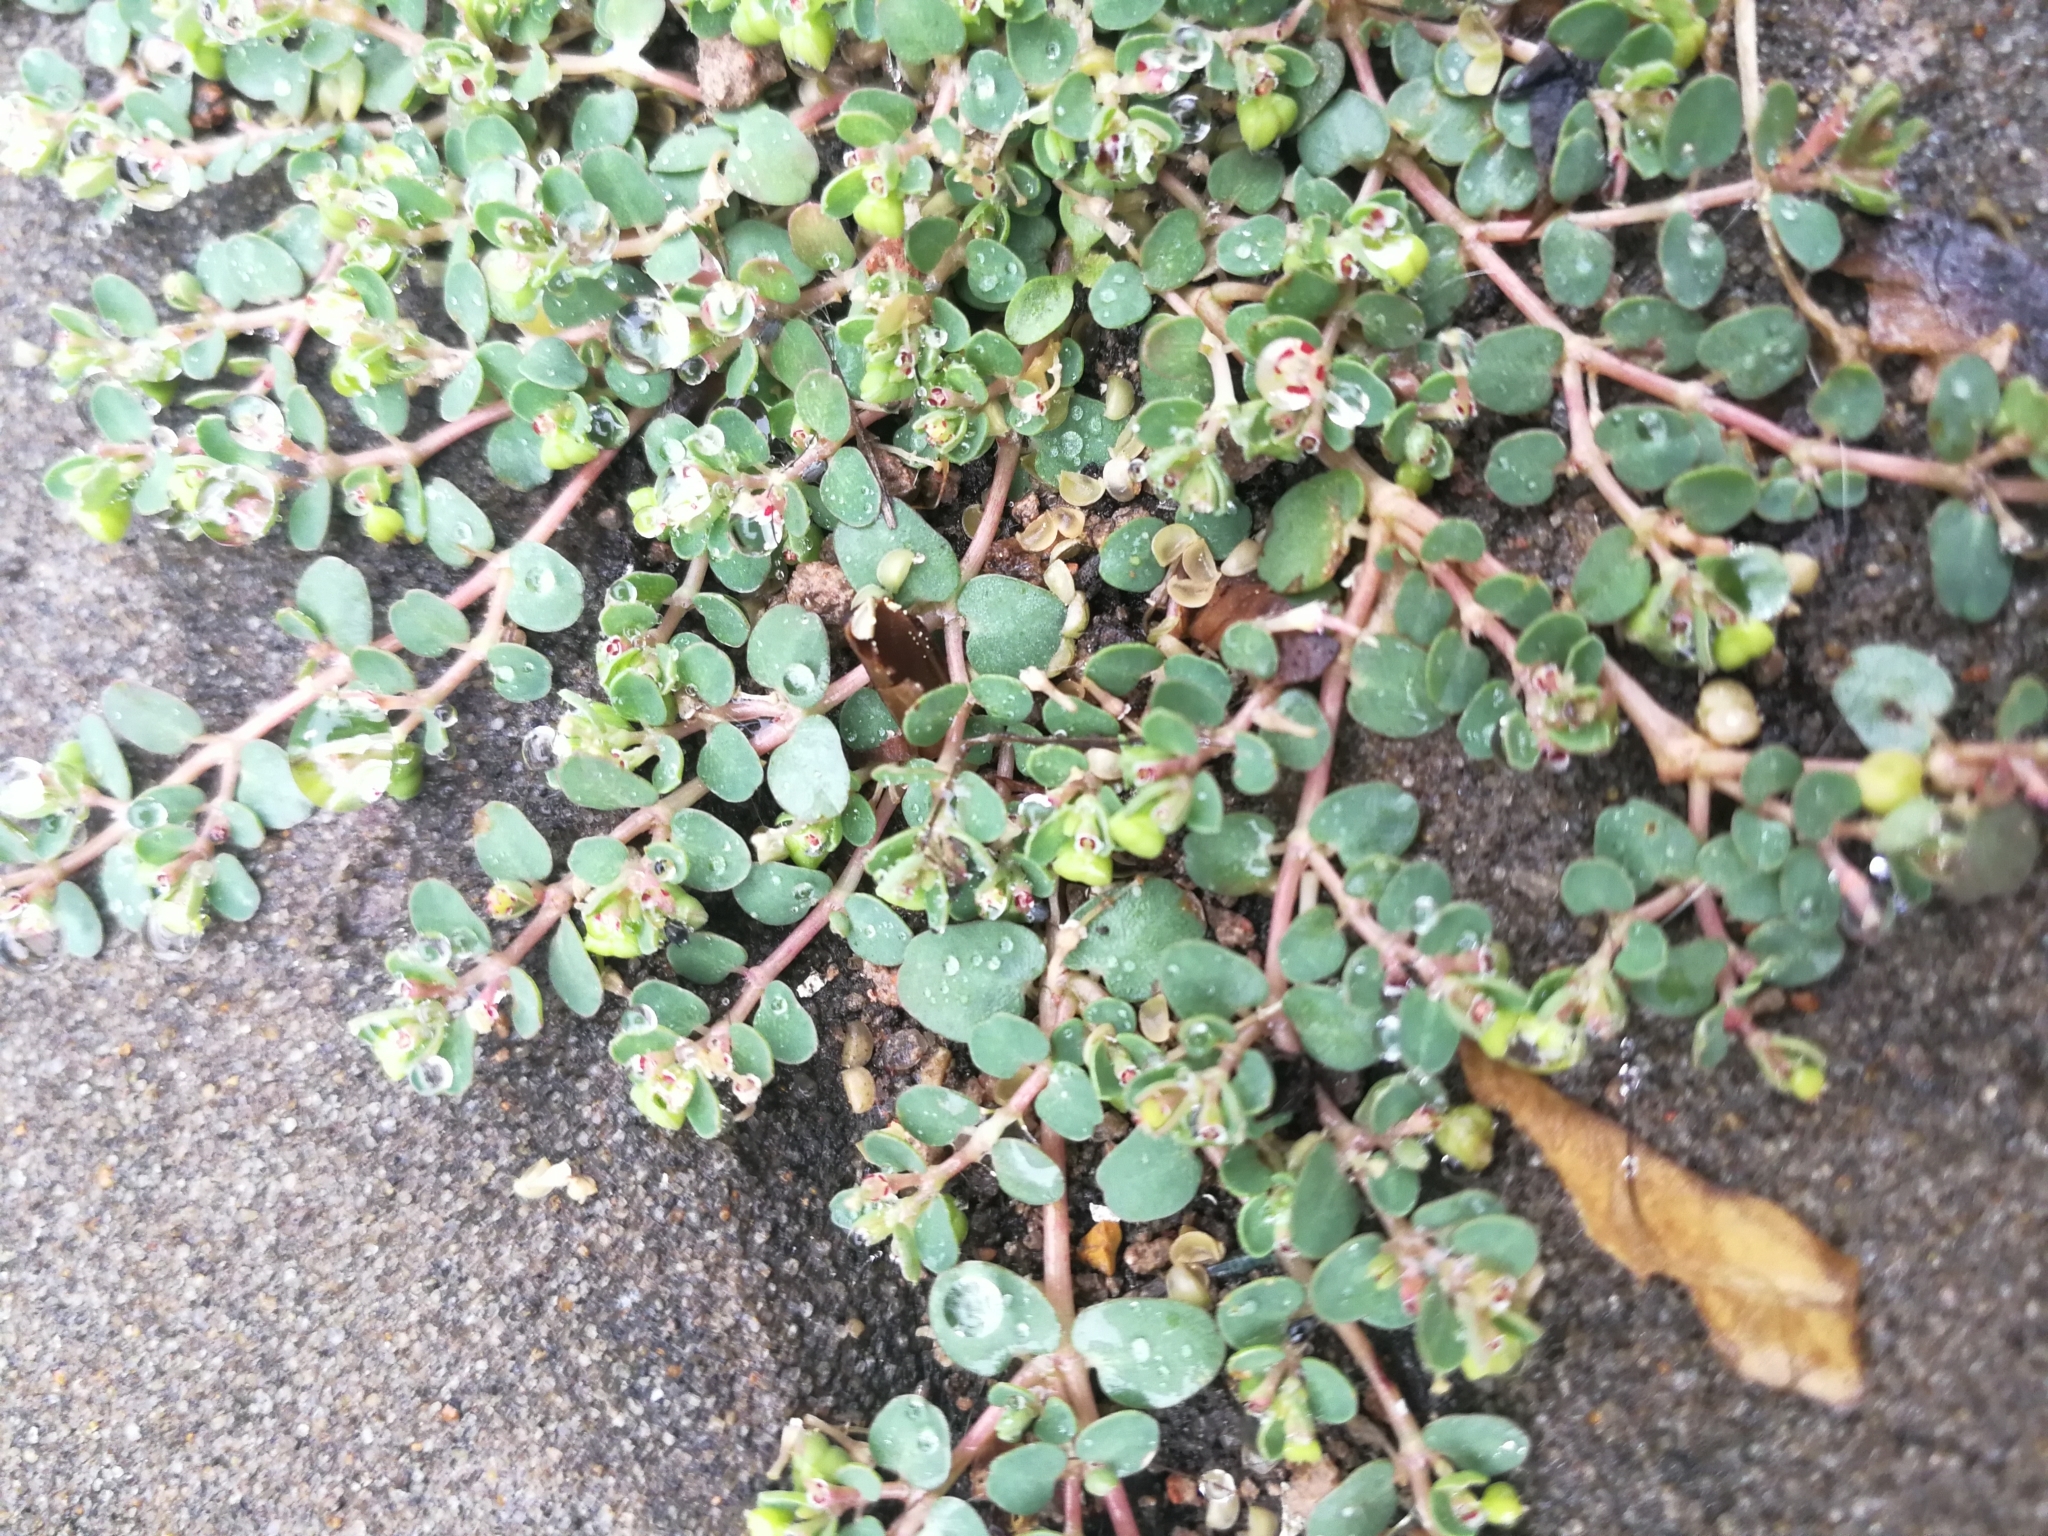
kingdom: Plantae
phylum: Tracheophyta
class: Magnoliopsida
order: Malpighiales
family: Euphorbiaceae
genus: Euphorbia
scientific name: Euphorbia serpens
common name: Matted sandmat
